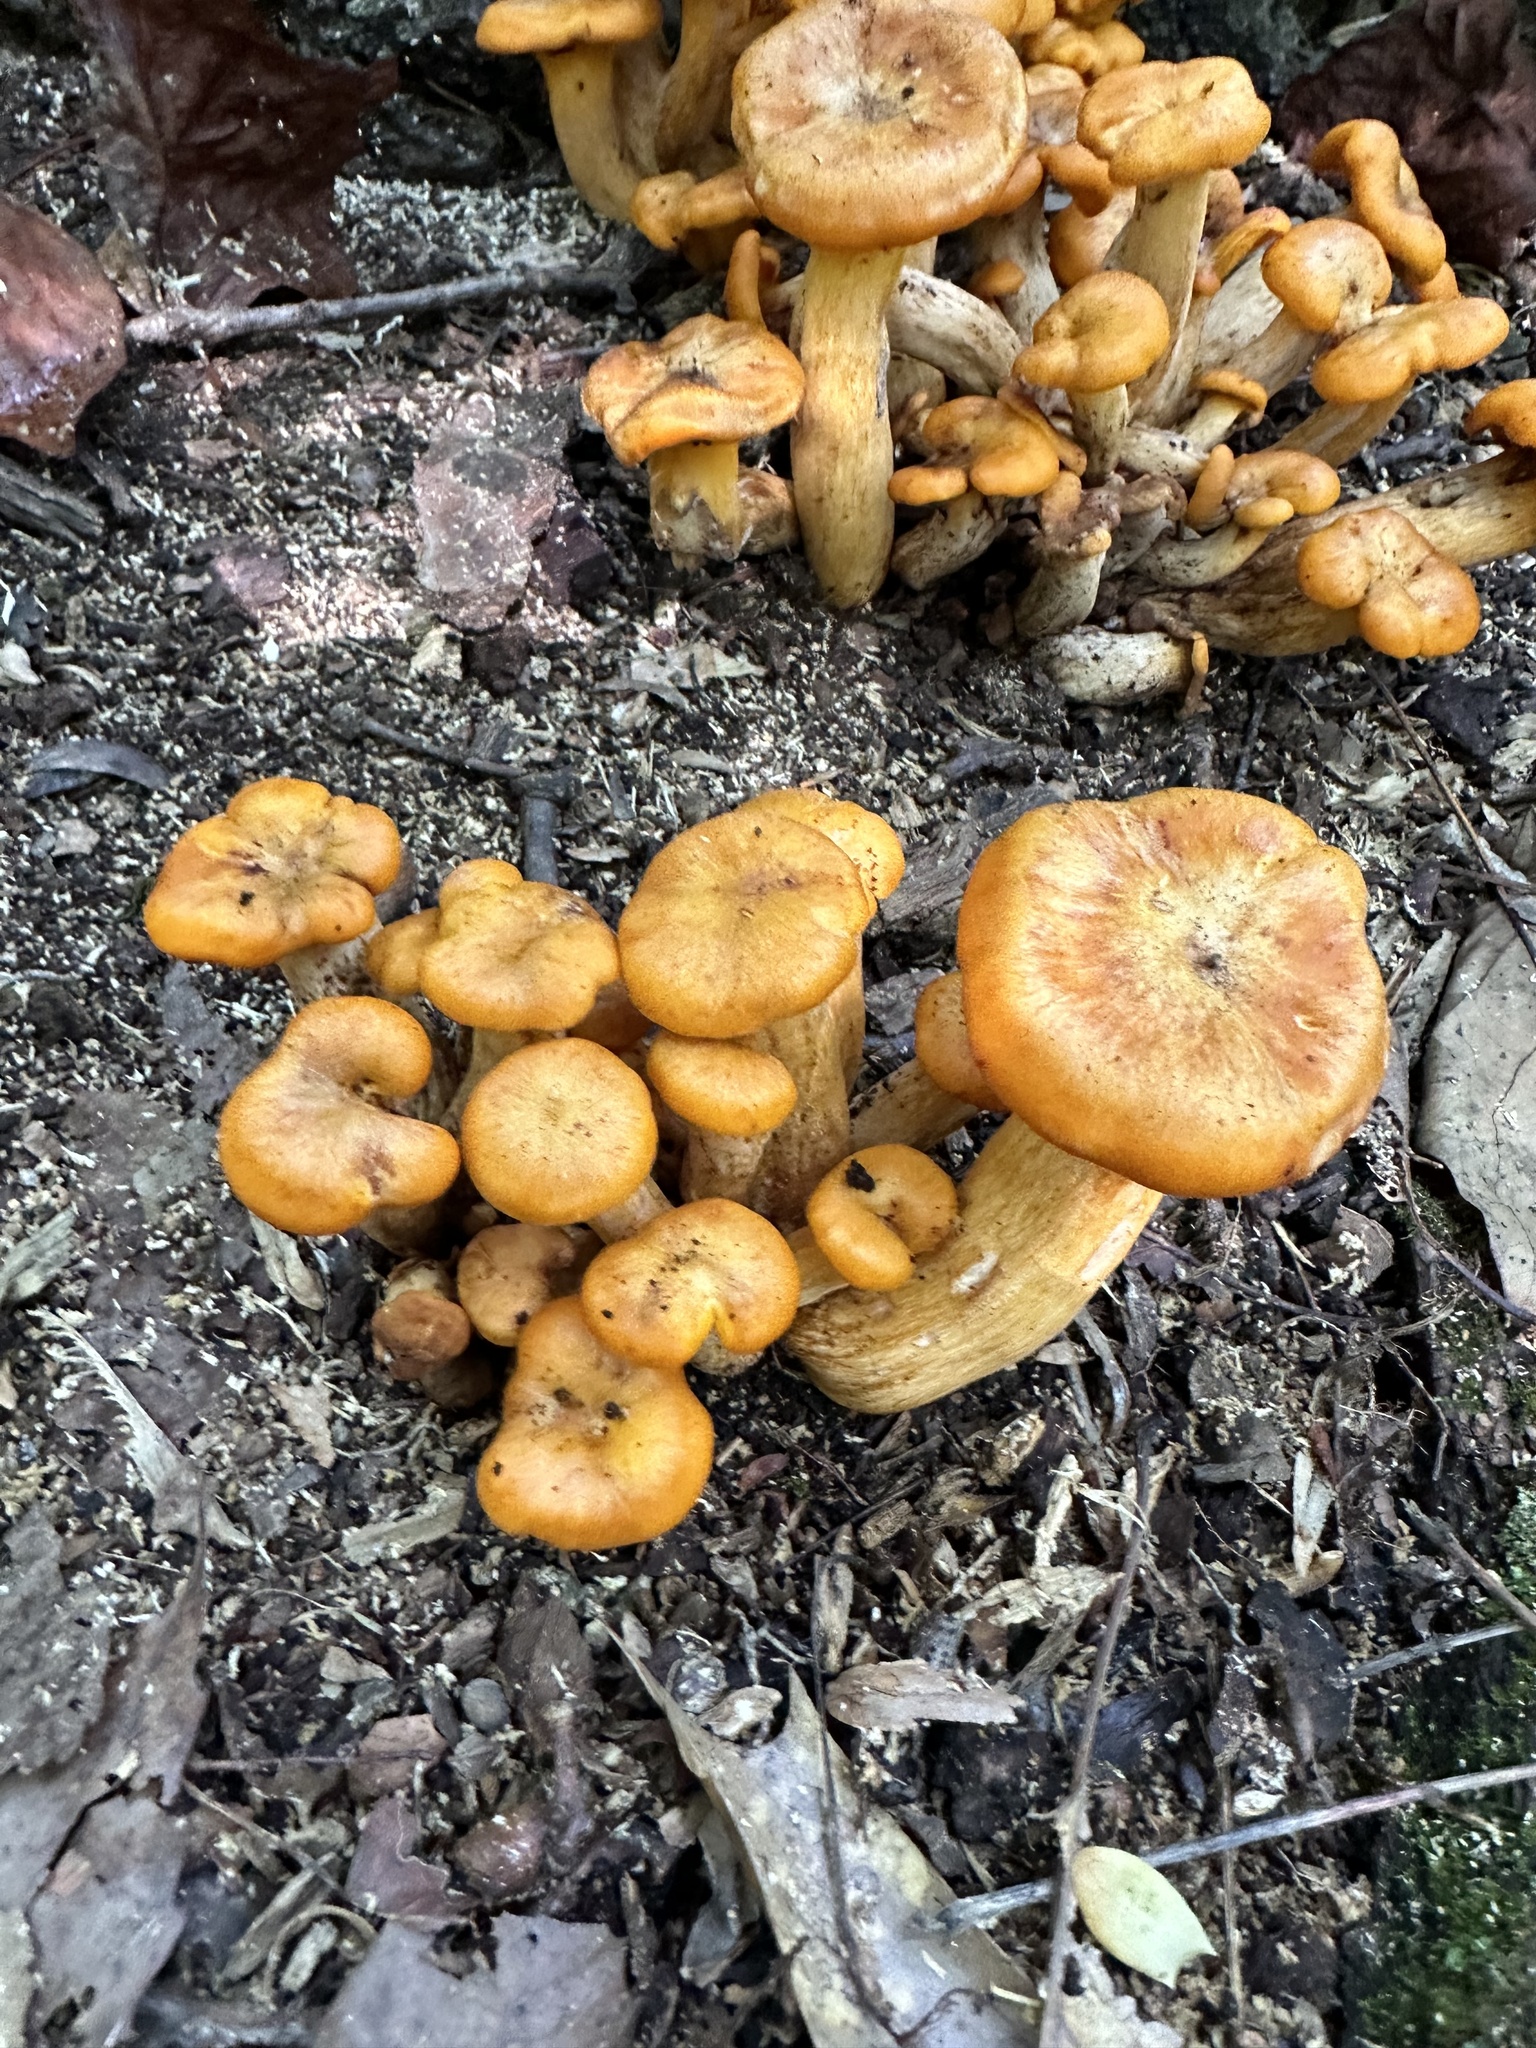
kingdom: Fungi
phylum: Basidiomycota
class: Agaricomycetes
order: Agaricales
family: Omphalotaceae
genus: Omphalotus
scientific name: Omphalotus illudens
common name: Jack o lantern
